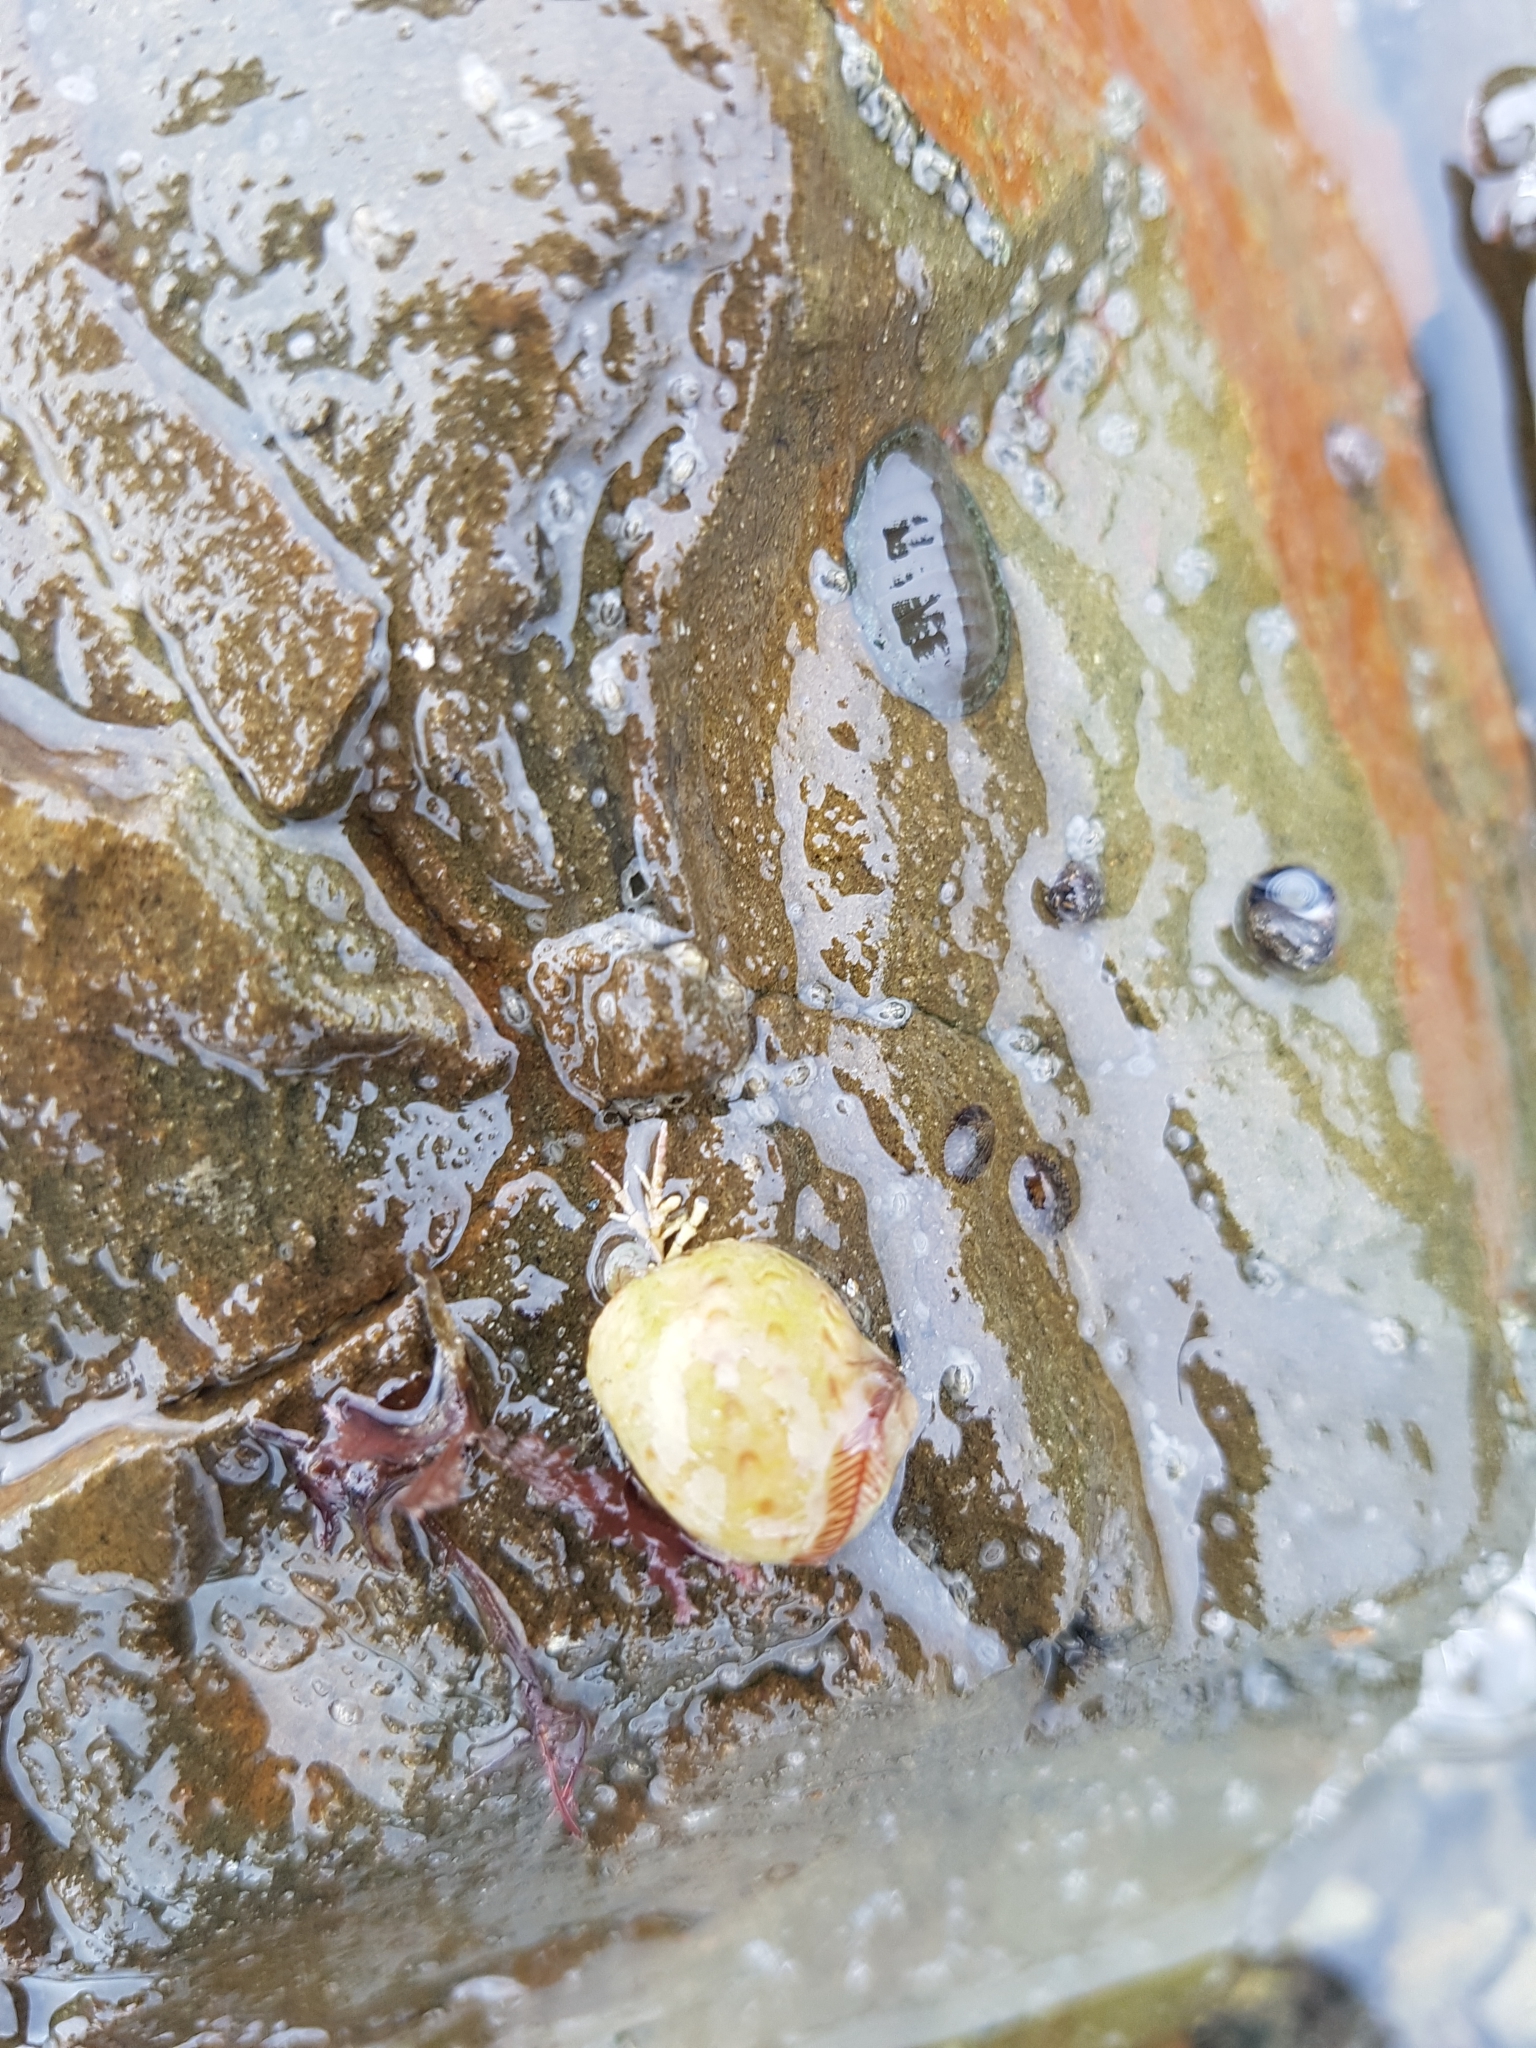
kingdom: Animalia
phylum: Mollusca
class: Gastropoda
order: Littorinimorpha
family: Naticidae
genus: Tanea
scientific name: Tanea zelandica
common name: New zealand moonsnail
